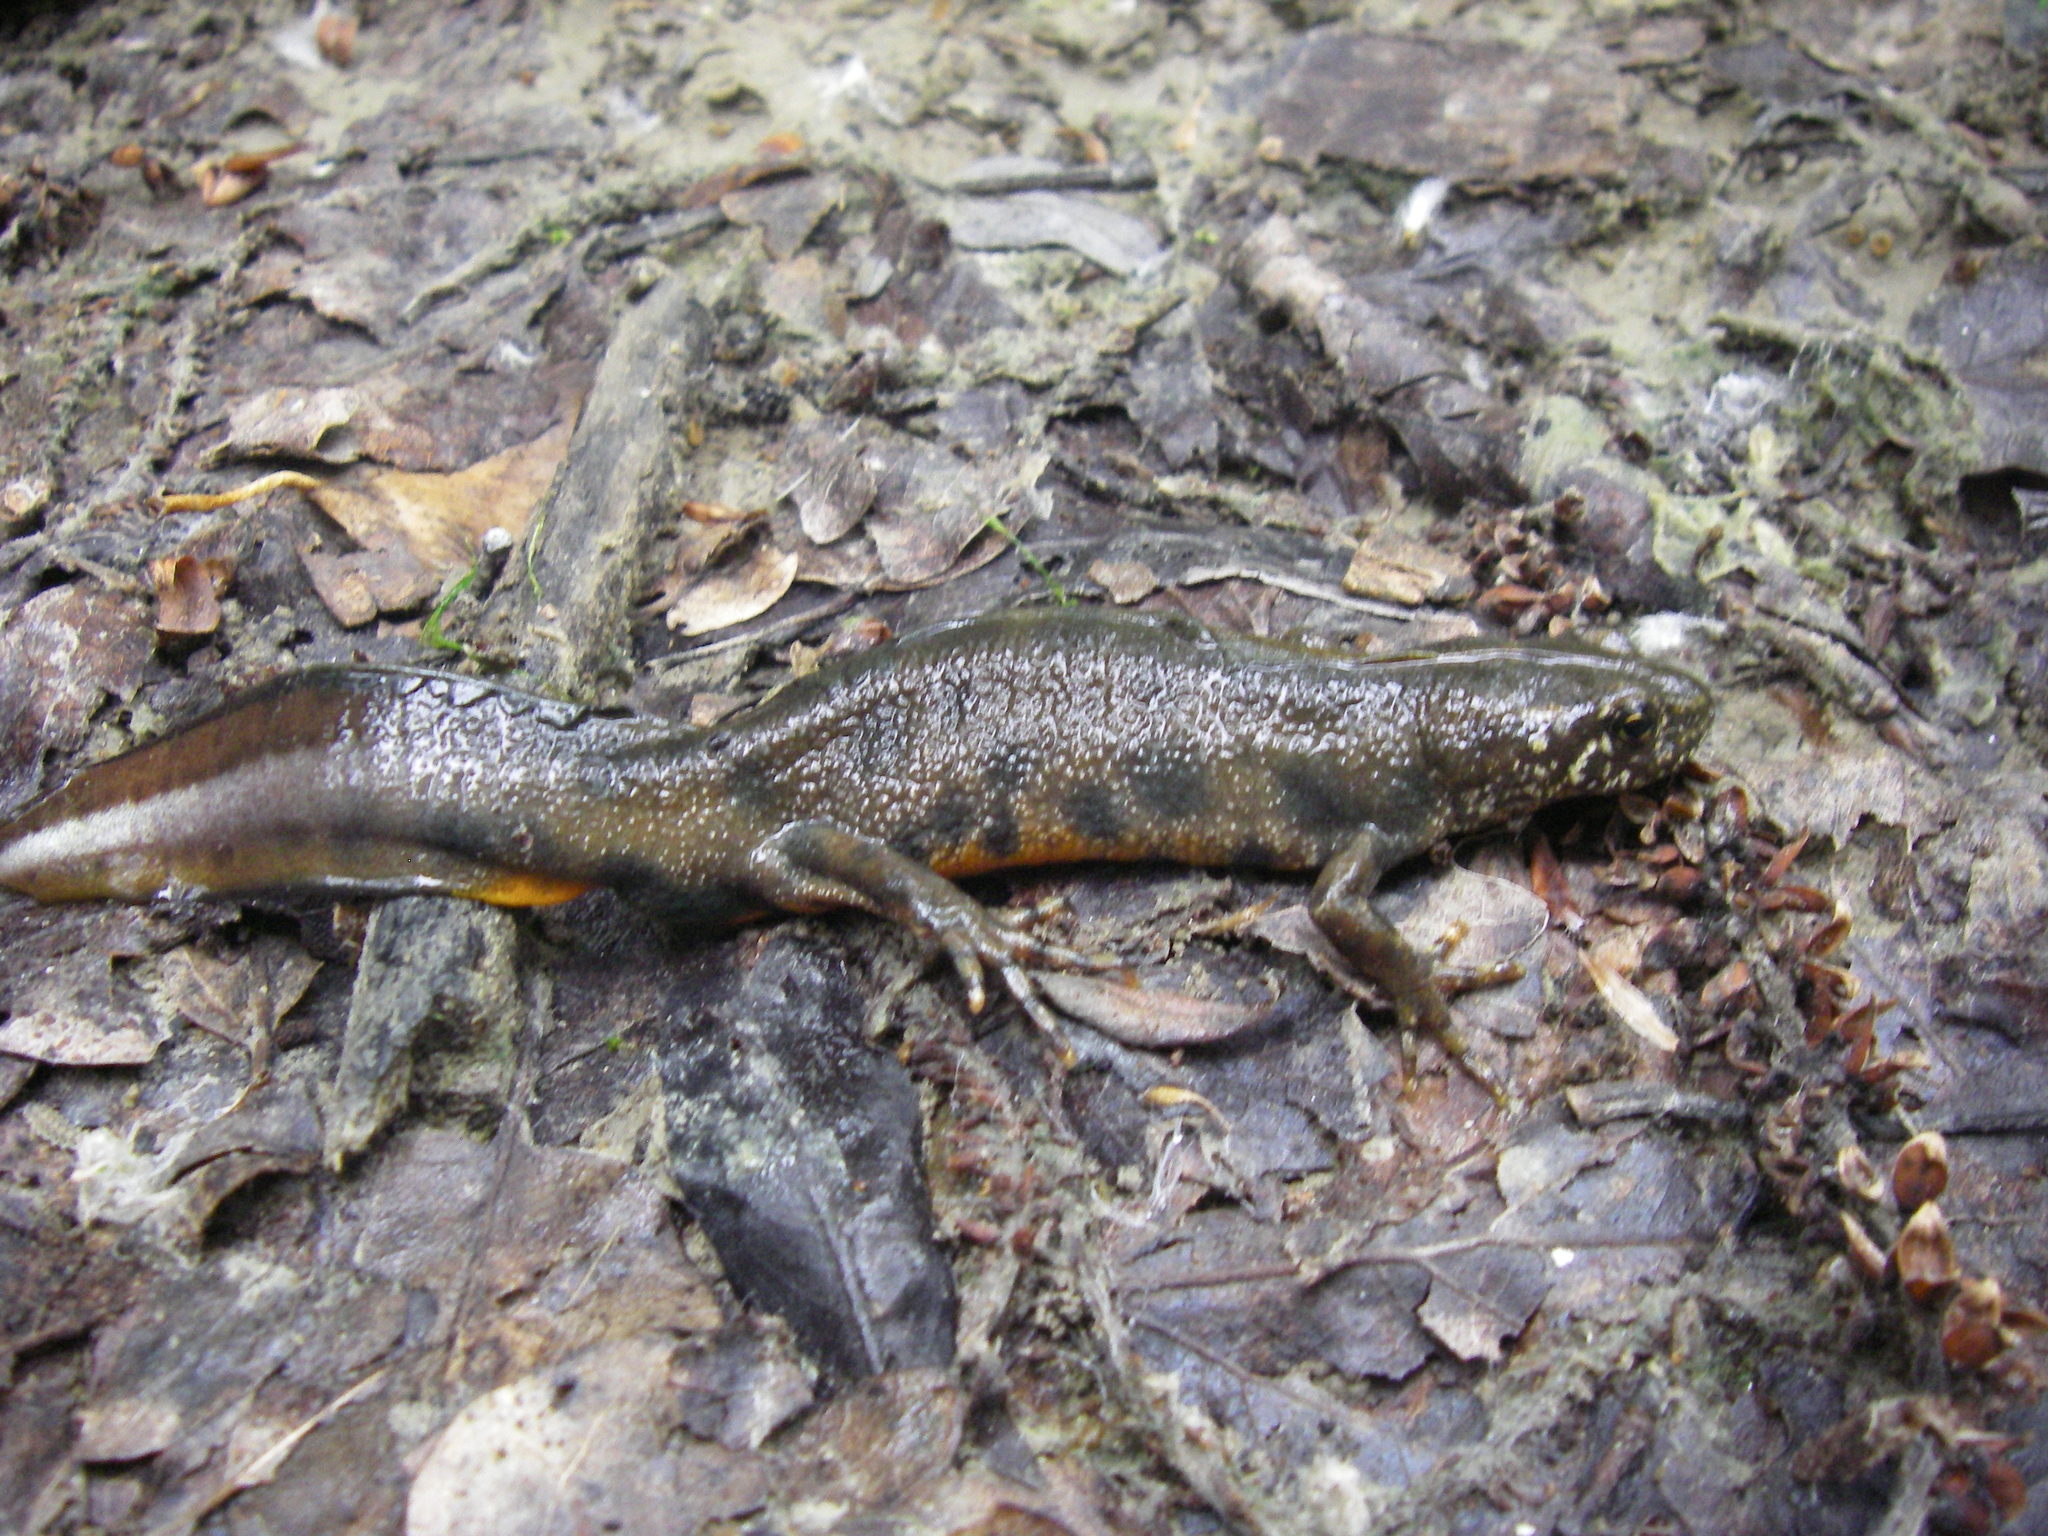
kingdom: Animalia
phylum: Chordata
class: Amphibia
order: Caudata
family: Salamandridae
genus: Triturus
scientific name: Triturus carnifex
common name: Italian crested newt
